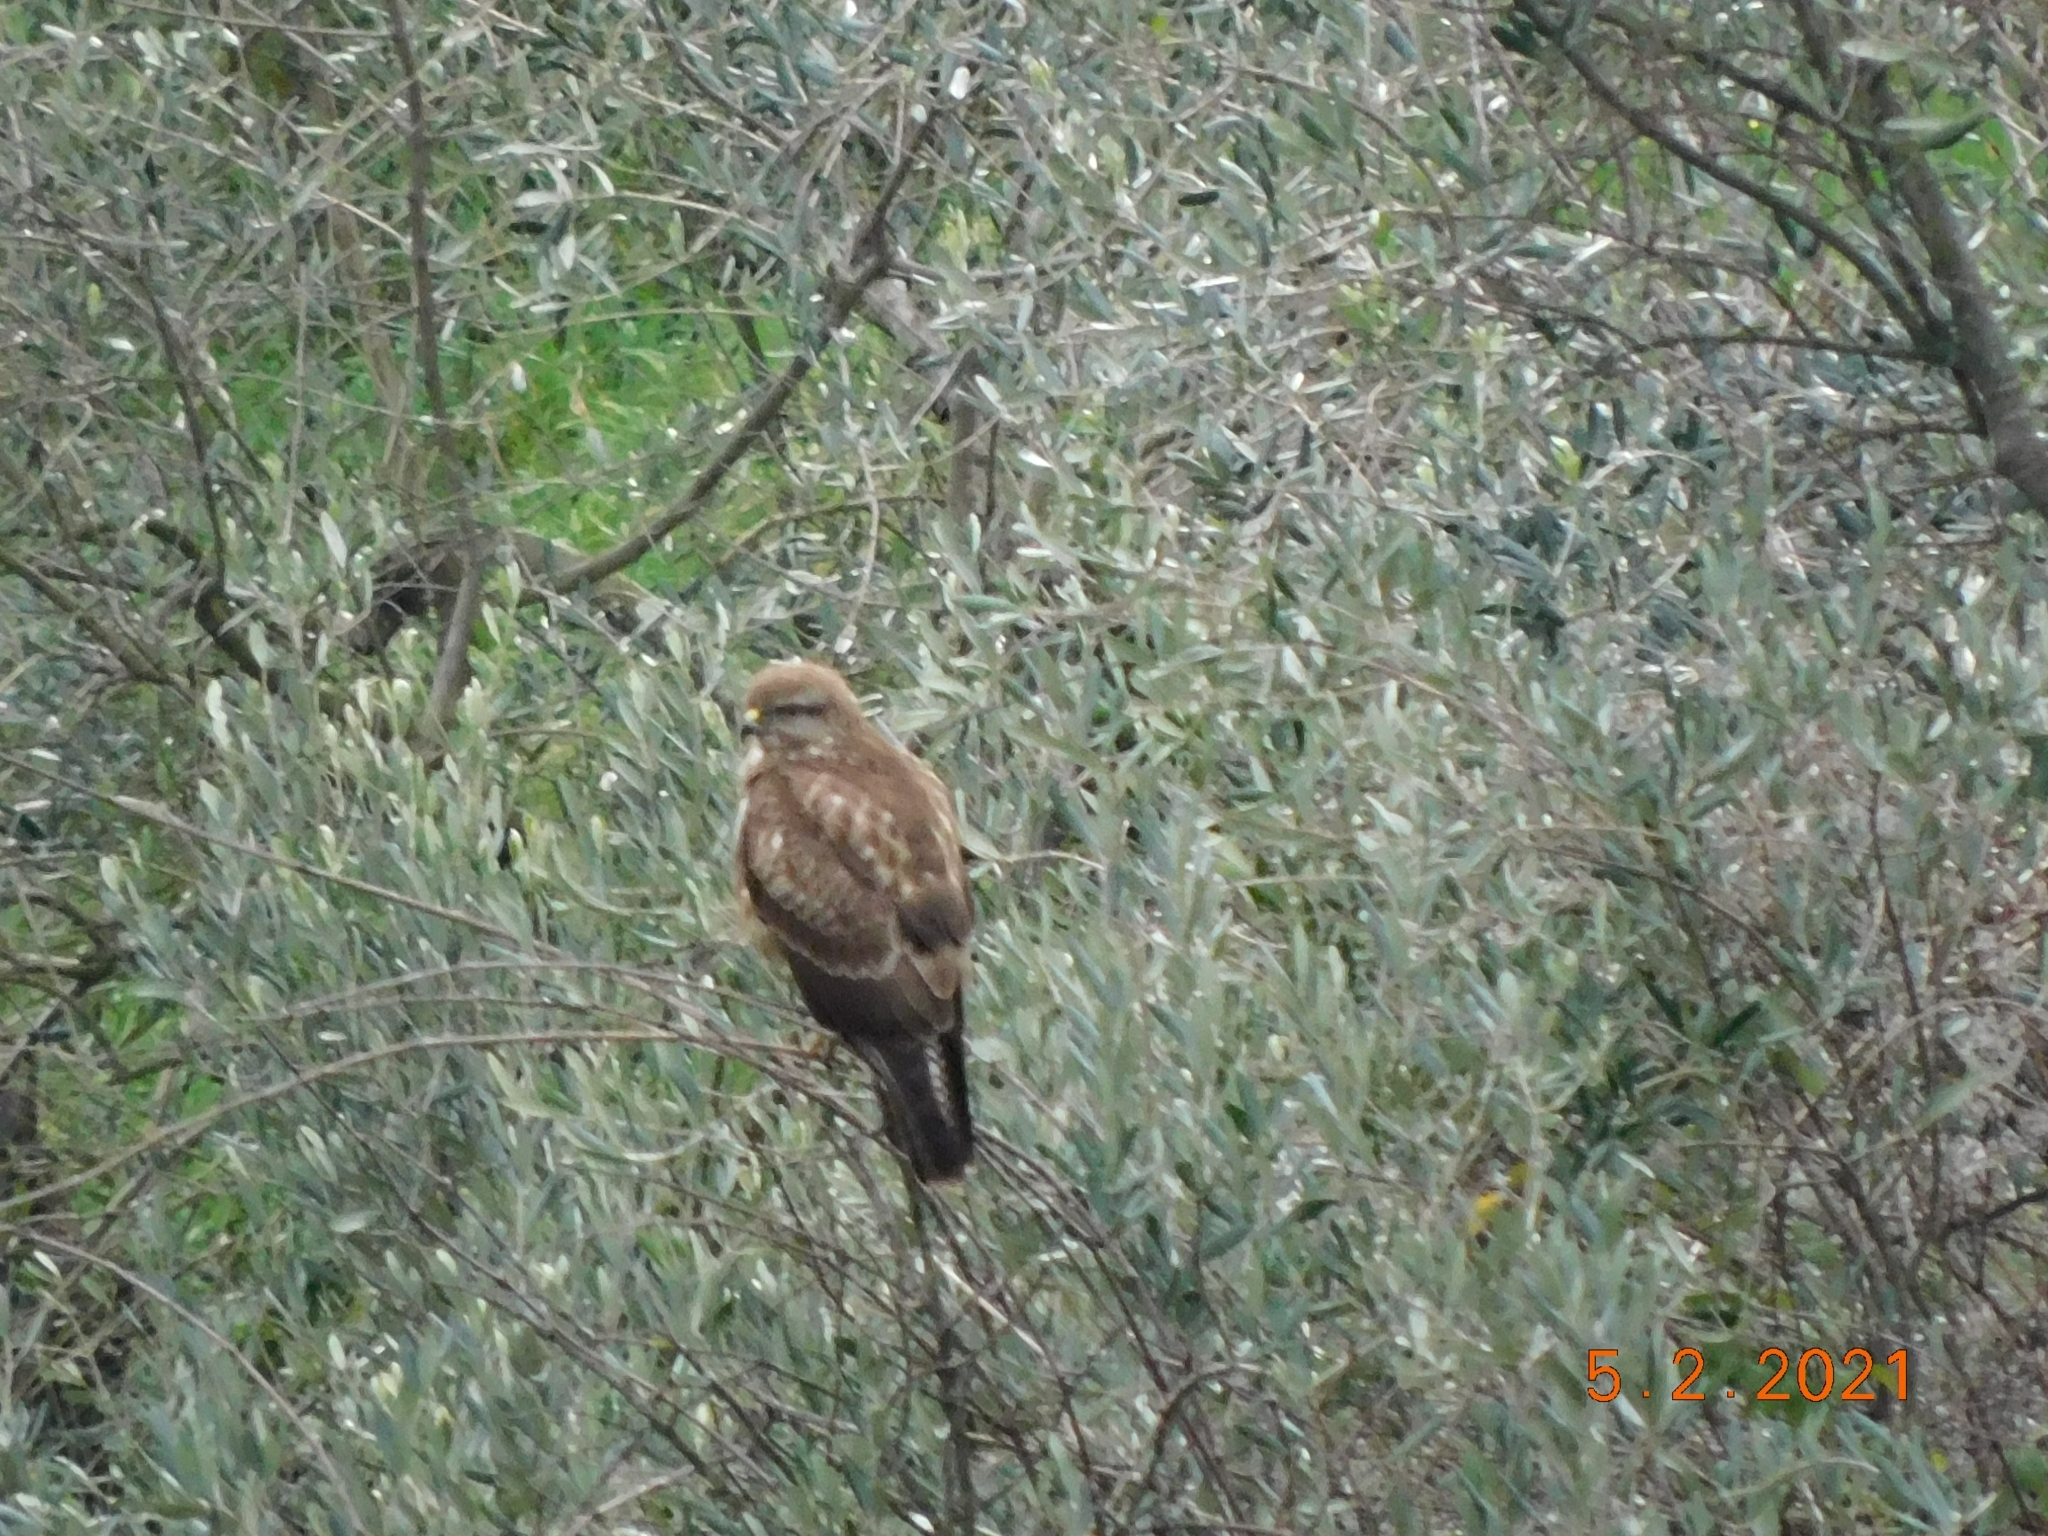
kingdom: Animalia
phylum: Chordata
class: Aves
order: Accipitriformes
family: Accipitridae
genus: Buteo
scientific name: Buteo buteo
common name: Common buzzard
